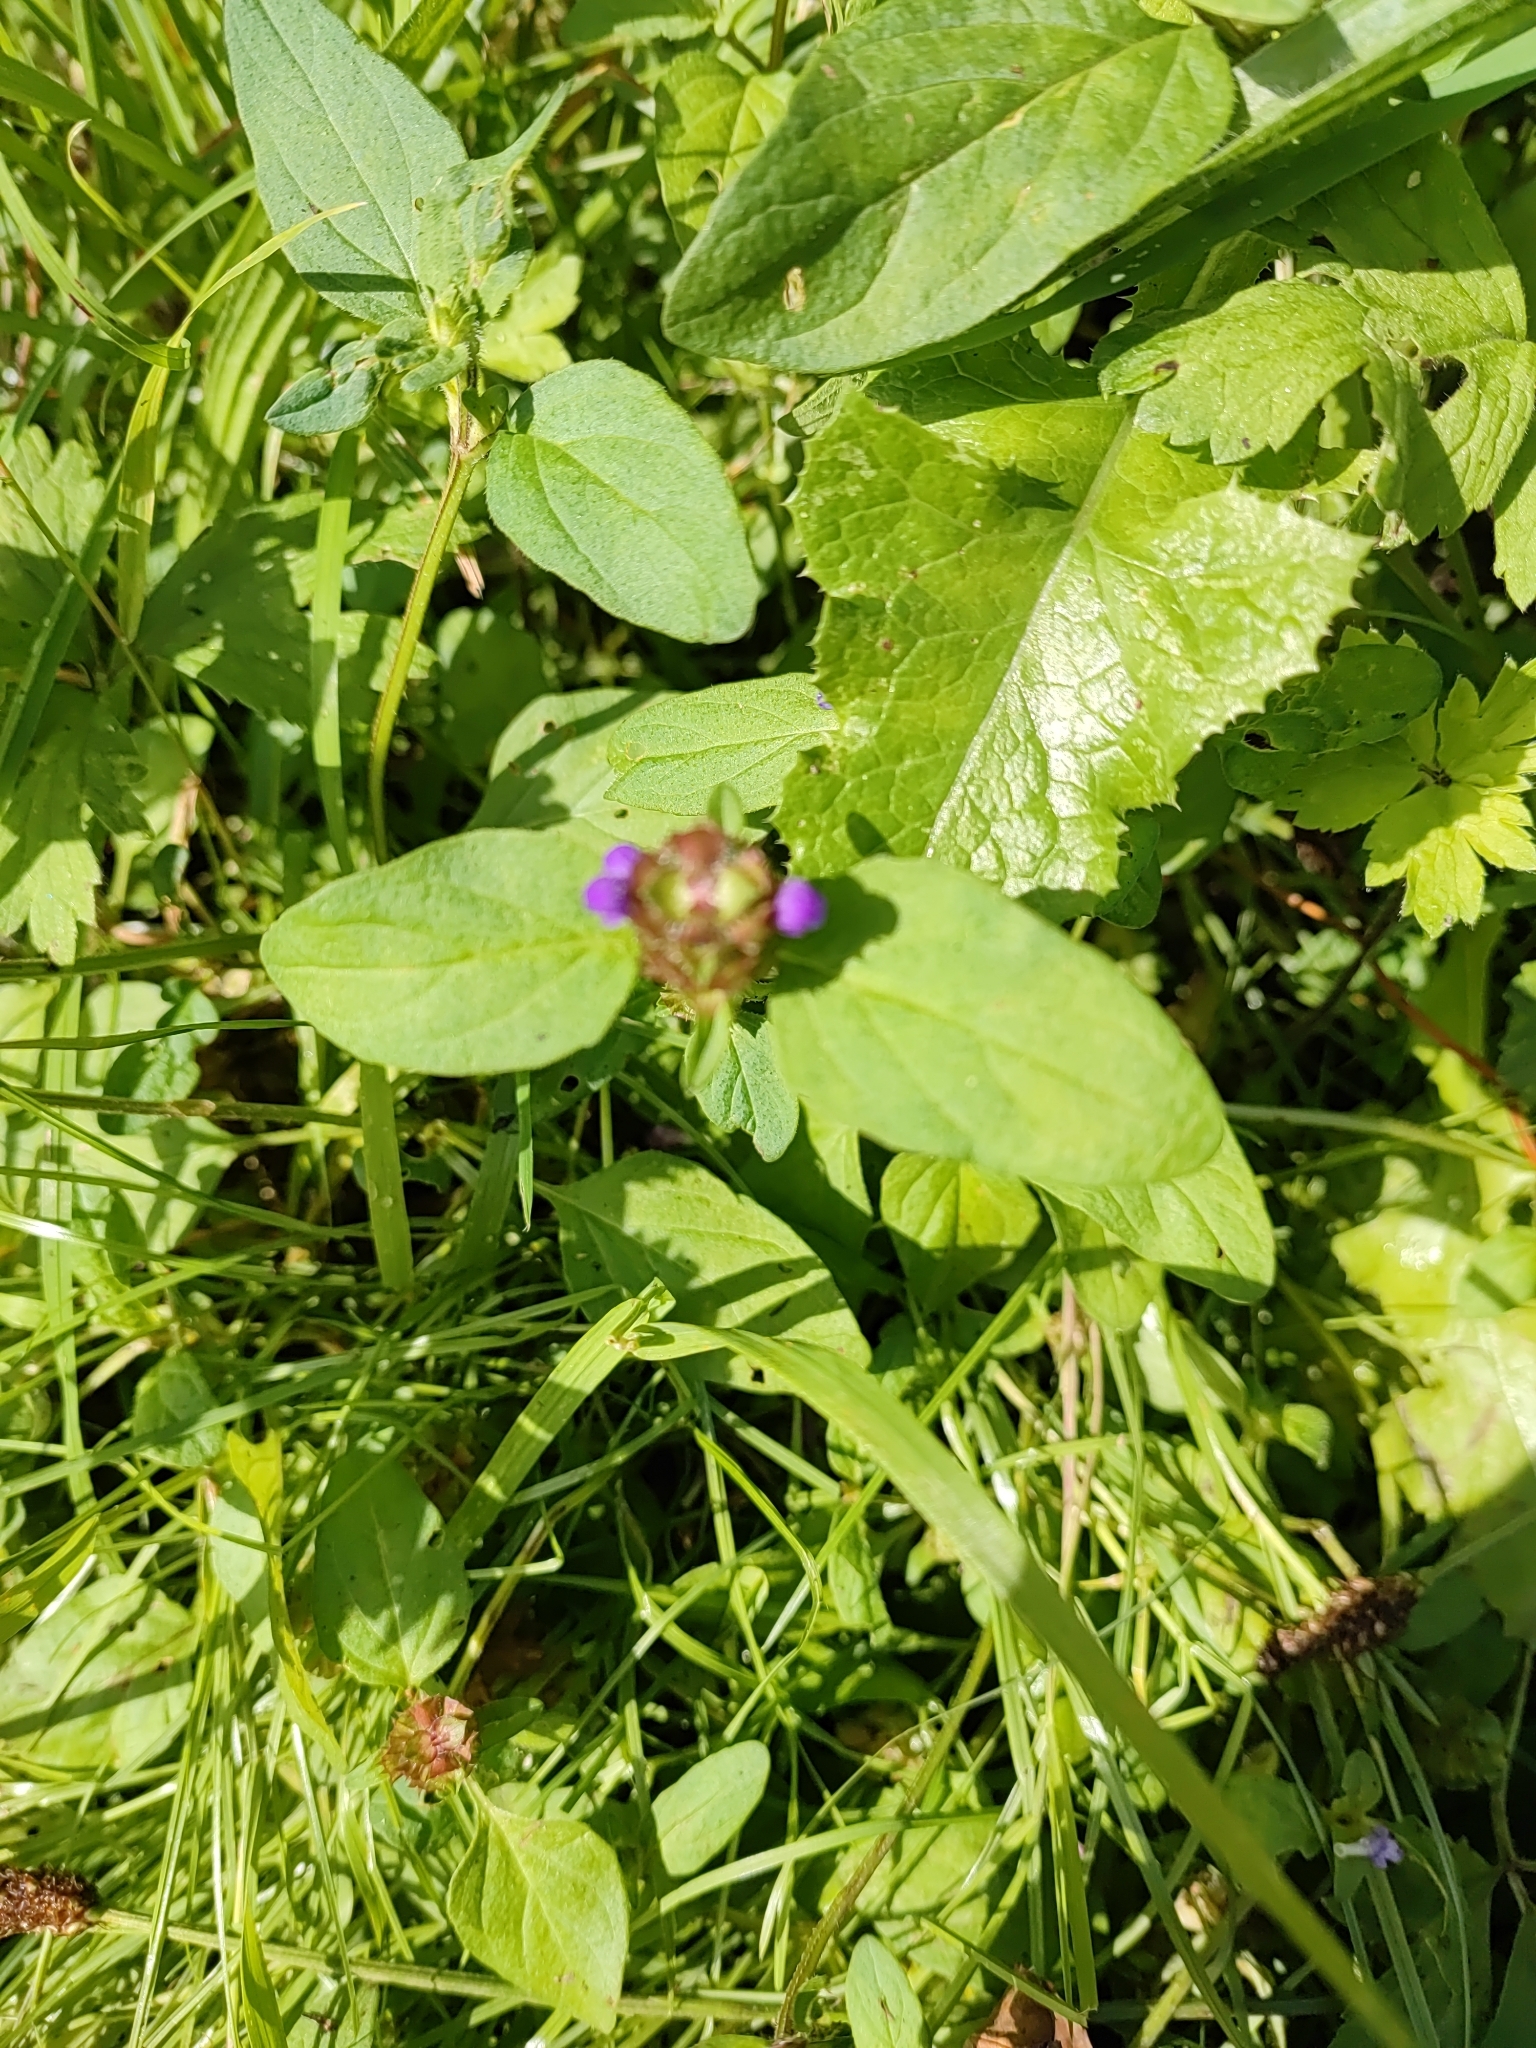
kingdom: Plantae
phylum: Tracheophyta
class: Magnoliopsida
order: Lamiales
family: Lamiaceae
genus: Prunella
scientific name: Prunella vulgaris
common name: Heal-all
